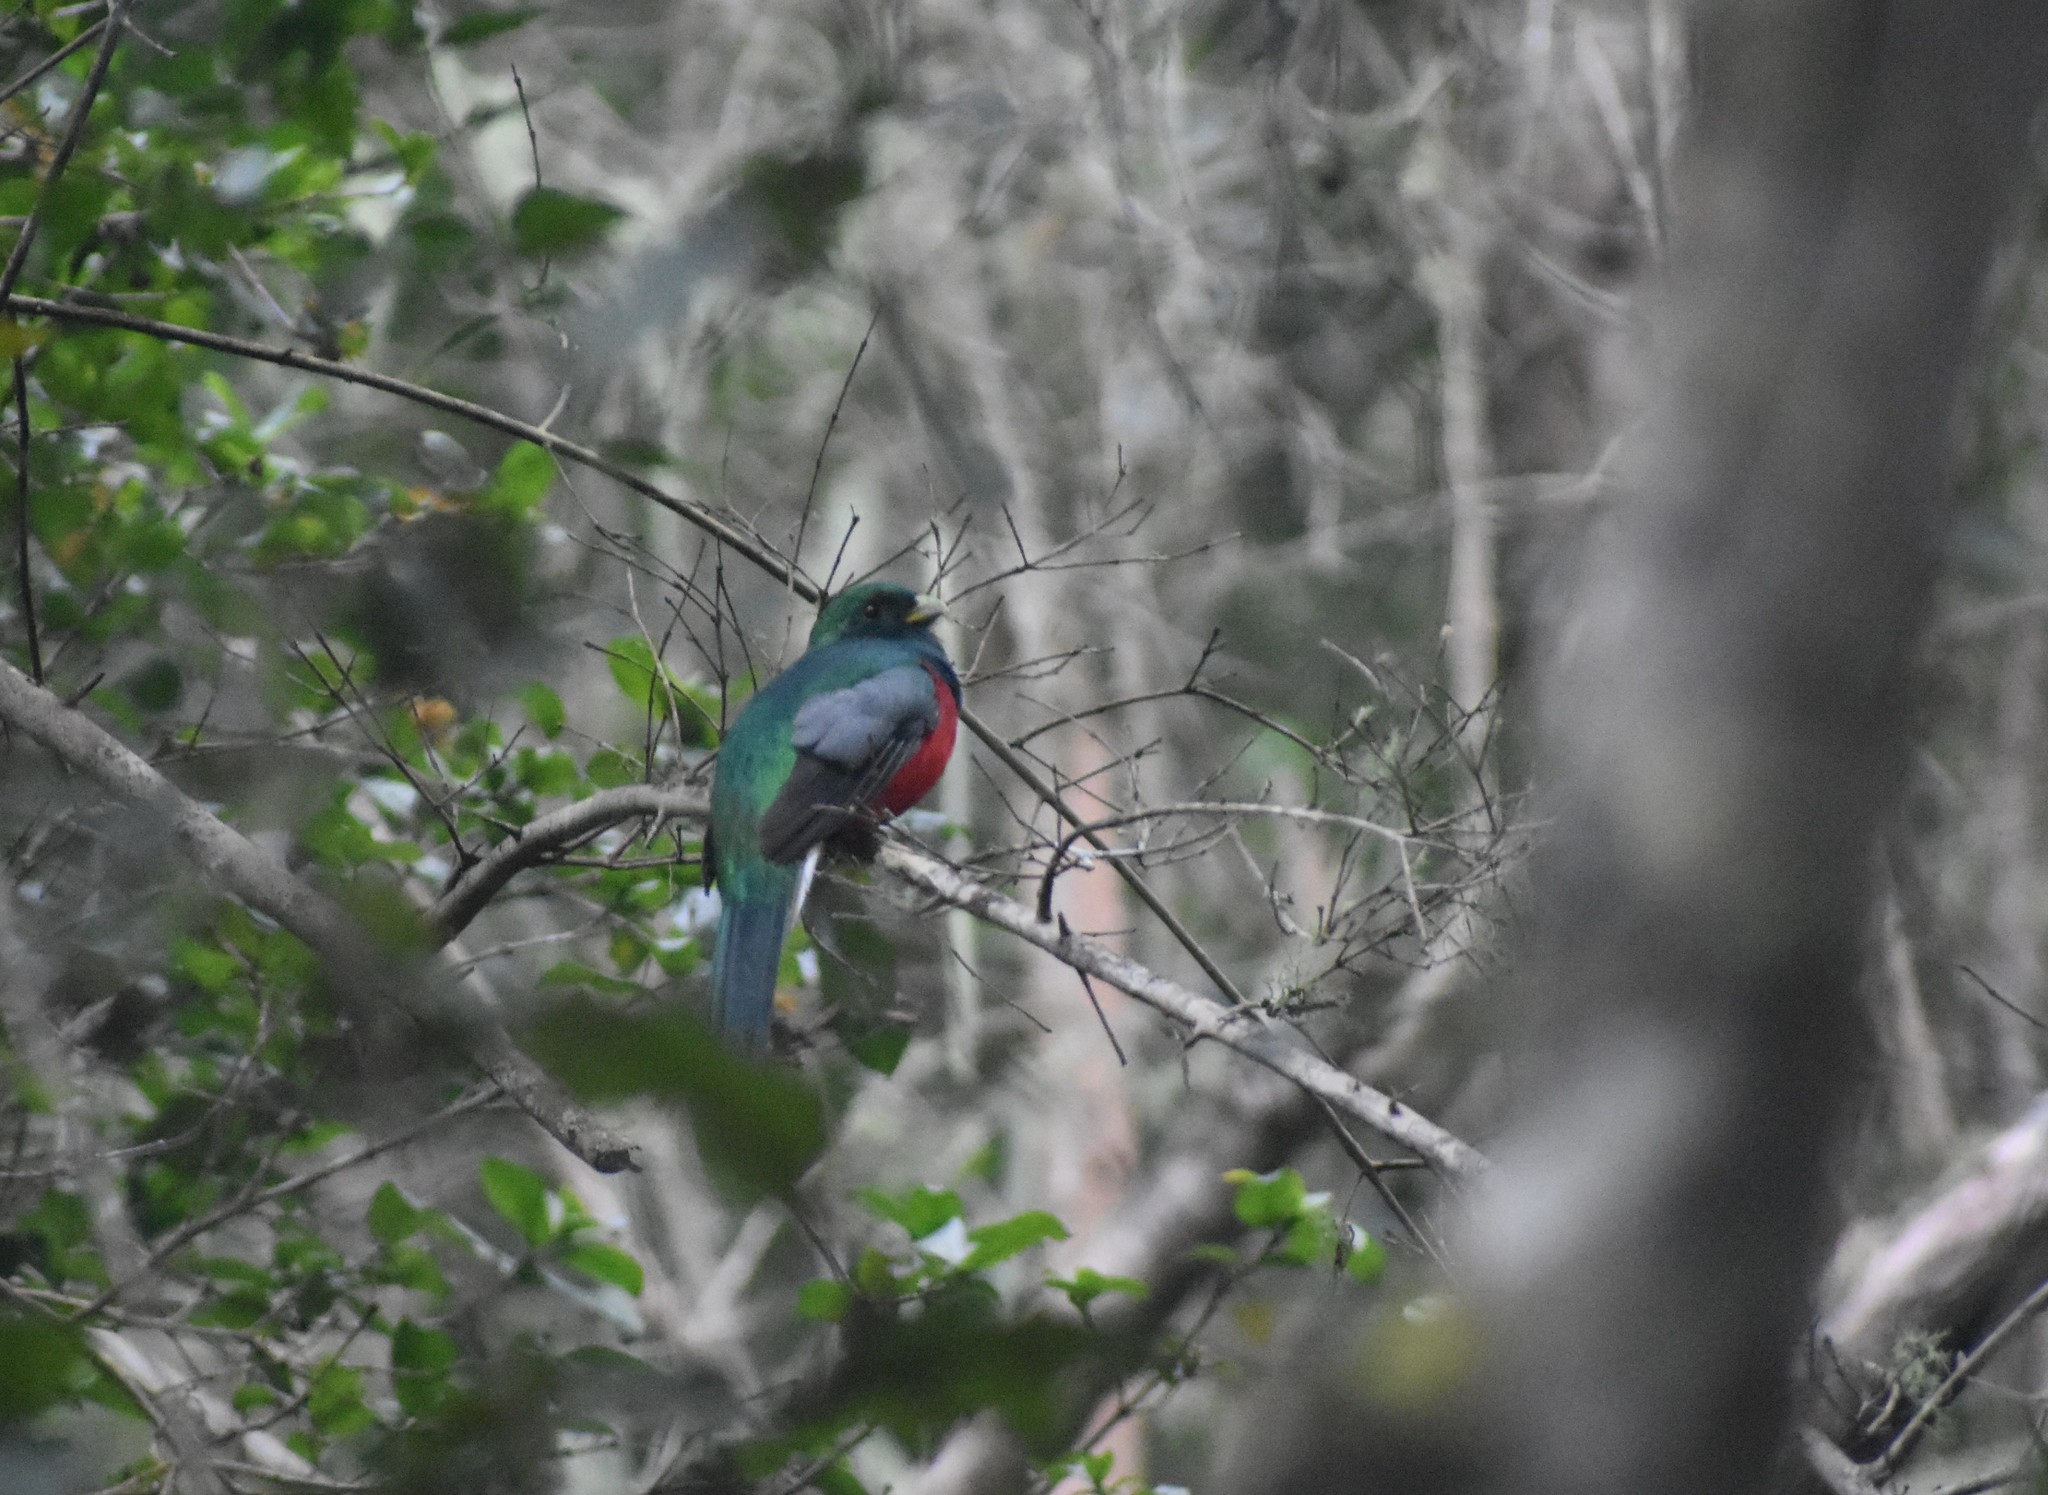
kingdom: Animalia
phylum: Chordata
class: Aves
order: Trogoniformes
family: Trogonidae
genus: Apaloderma
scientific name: Apaloderma narina
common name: Narina trogon
